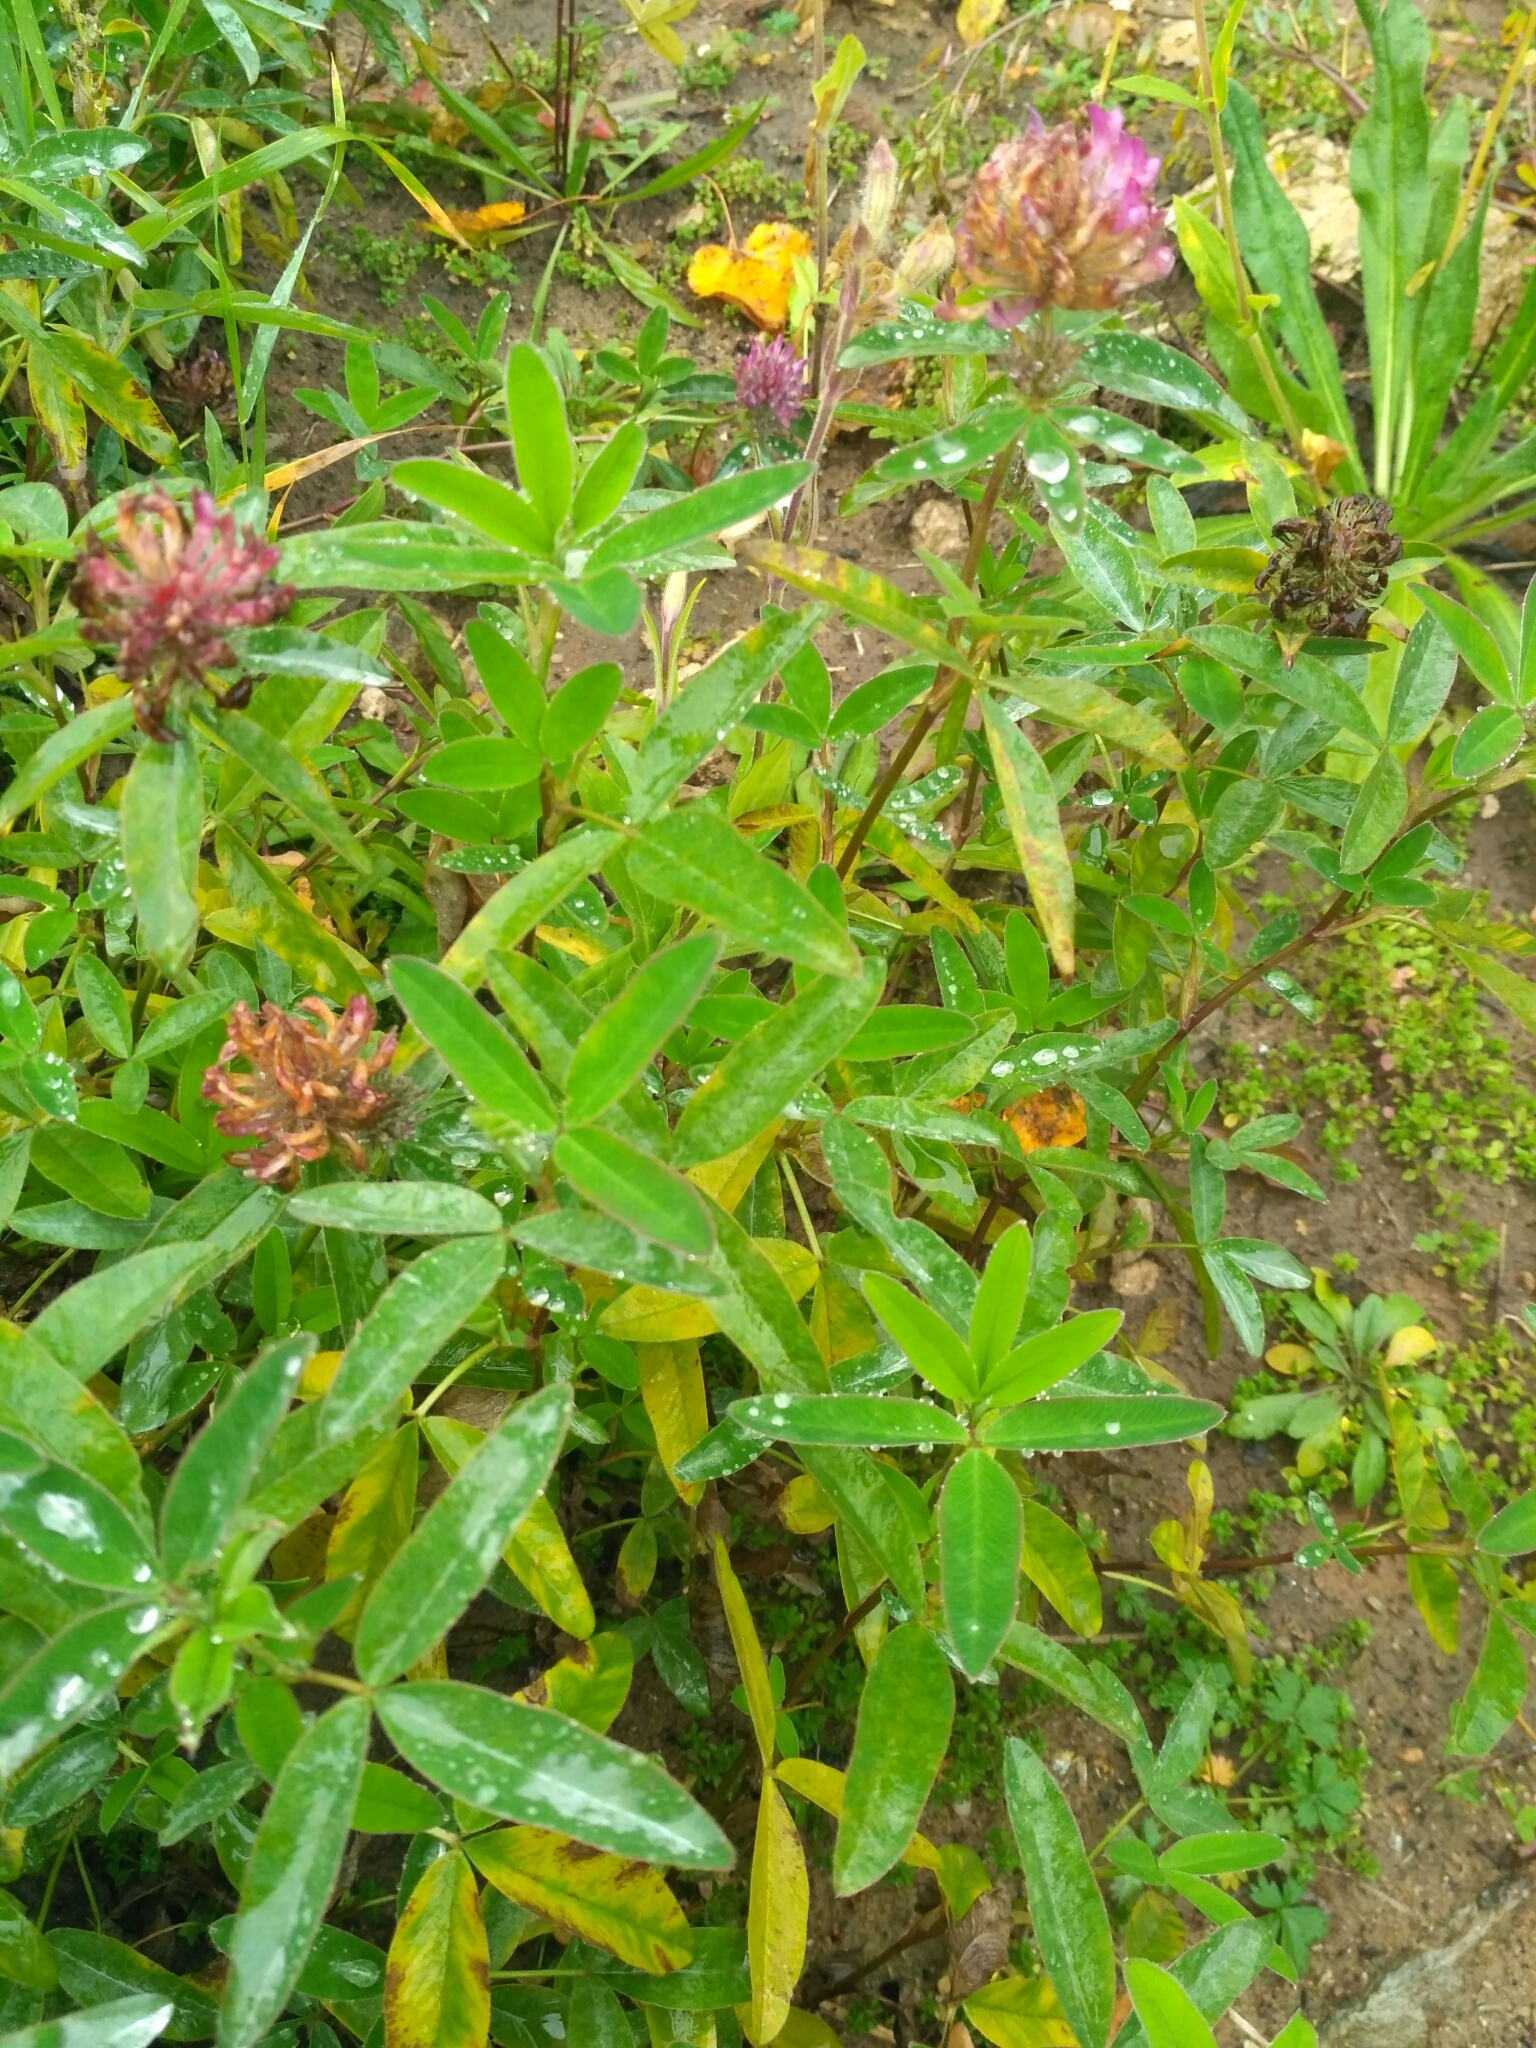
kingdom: Plantae
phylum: Tracheophyta
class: Magnoliopsida
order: Fabales
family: Fabaceae
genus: Trifolium
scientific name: Trifolium medium
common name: Zigzag clover
